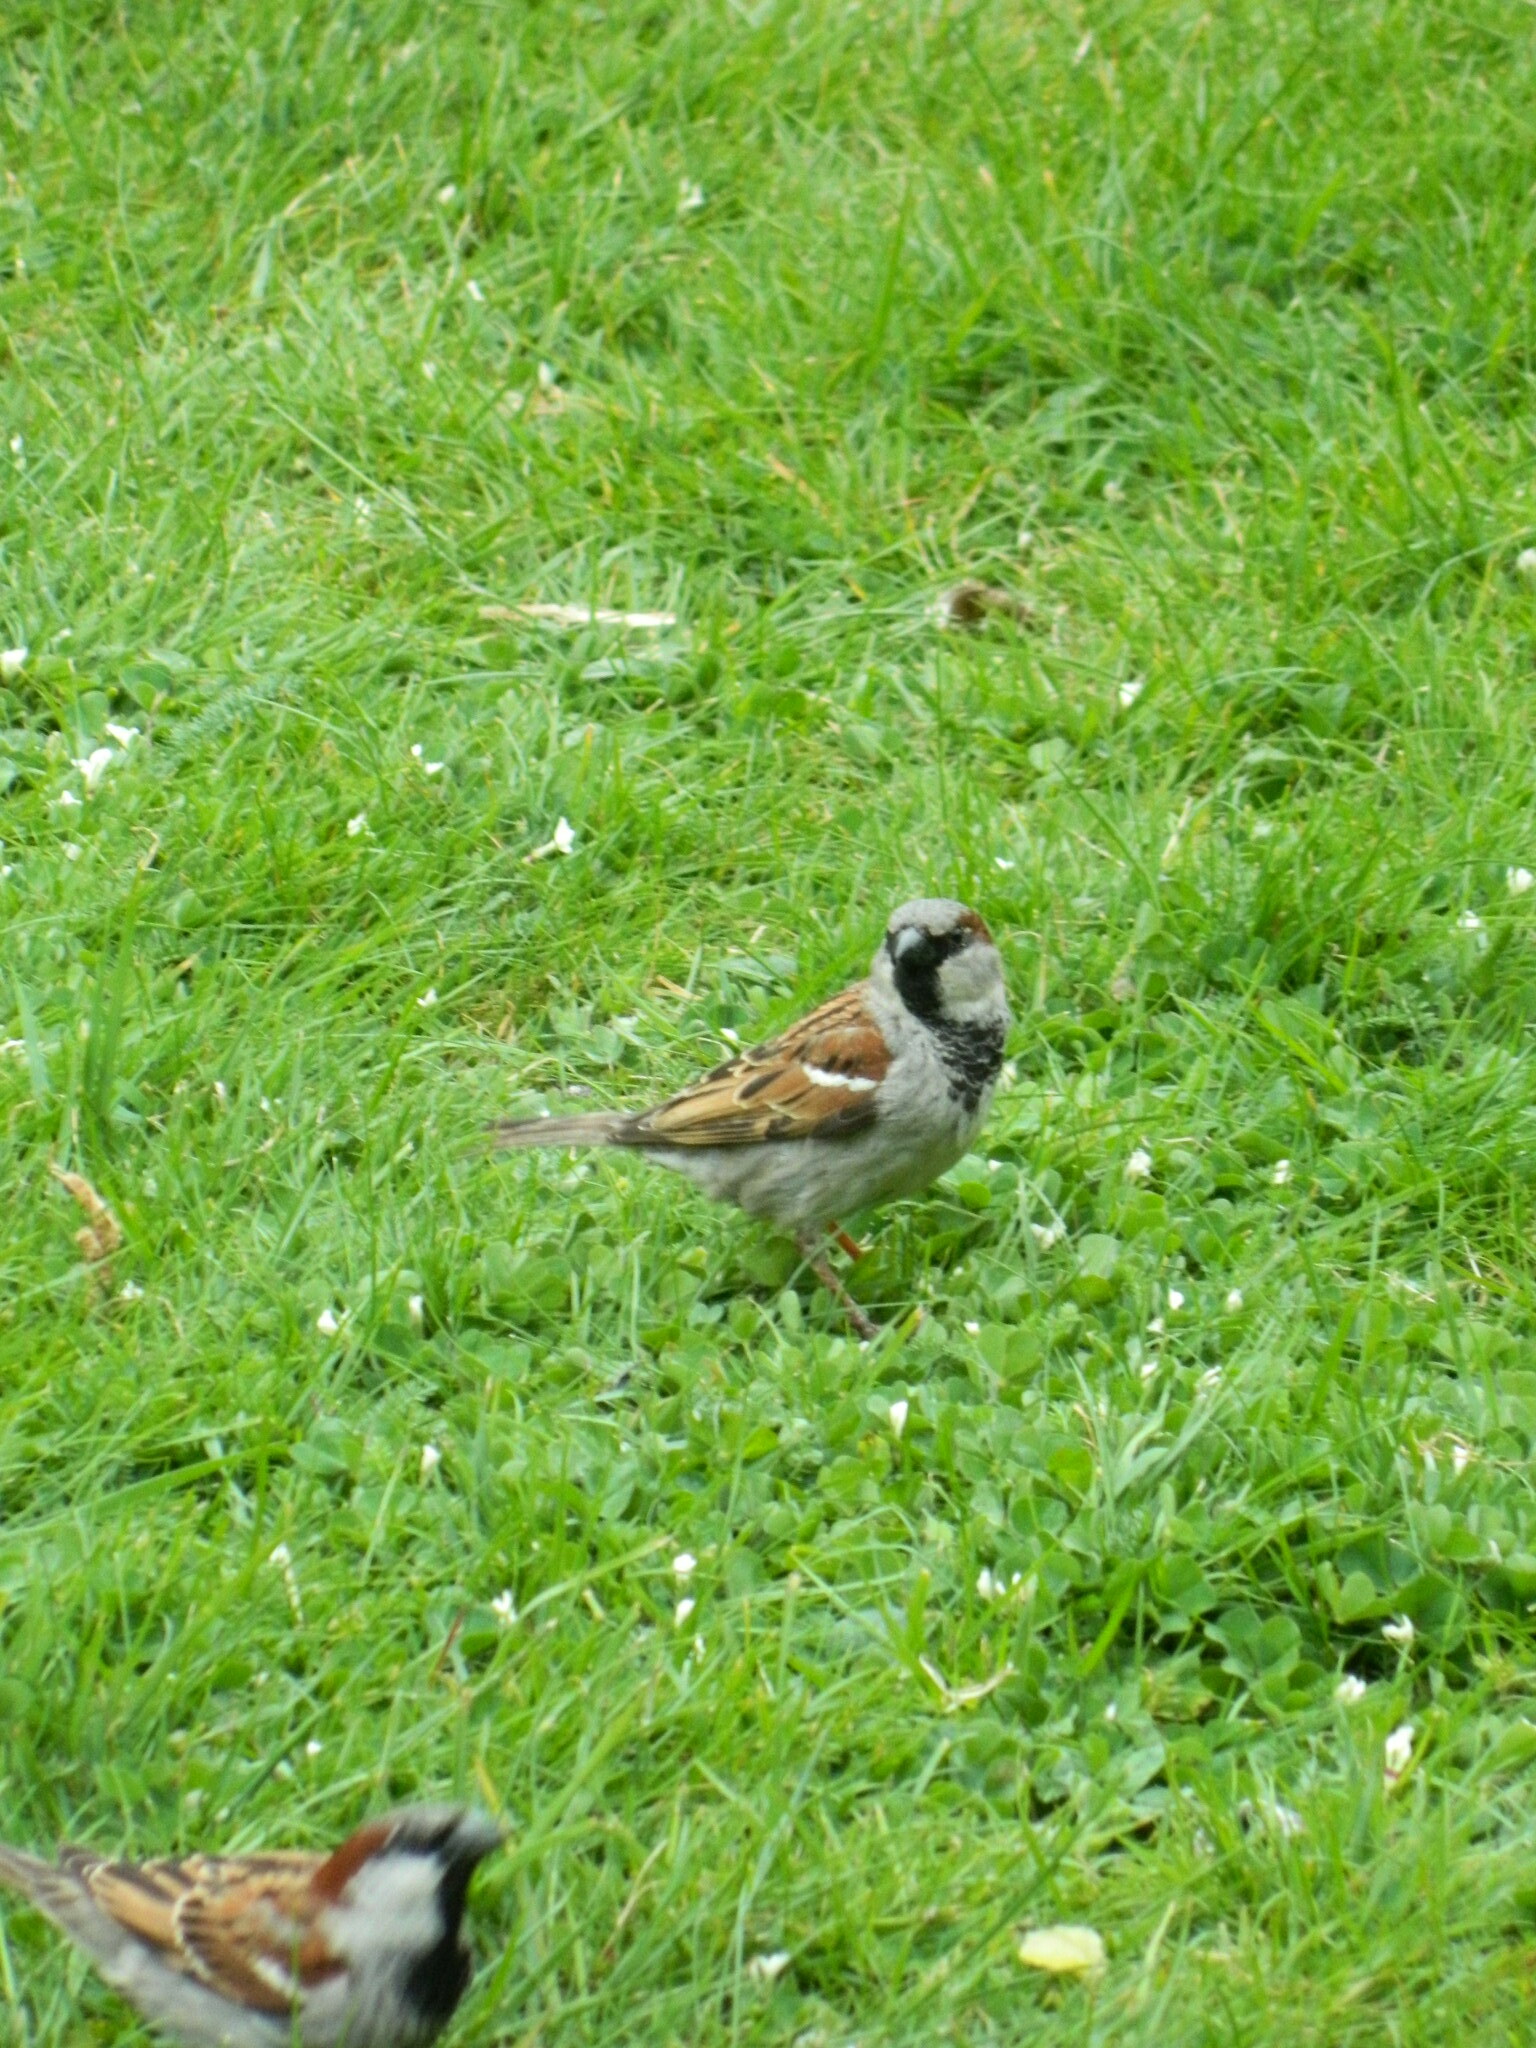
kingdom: Animalia
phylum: Chordata
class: Aves
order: Passeriformes
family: Passeridae
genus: Passer
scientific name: Passer domesticus
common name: House sparrow
